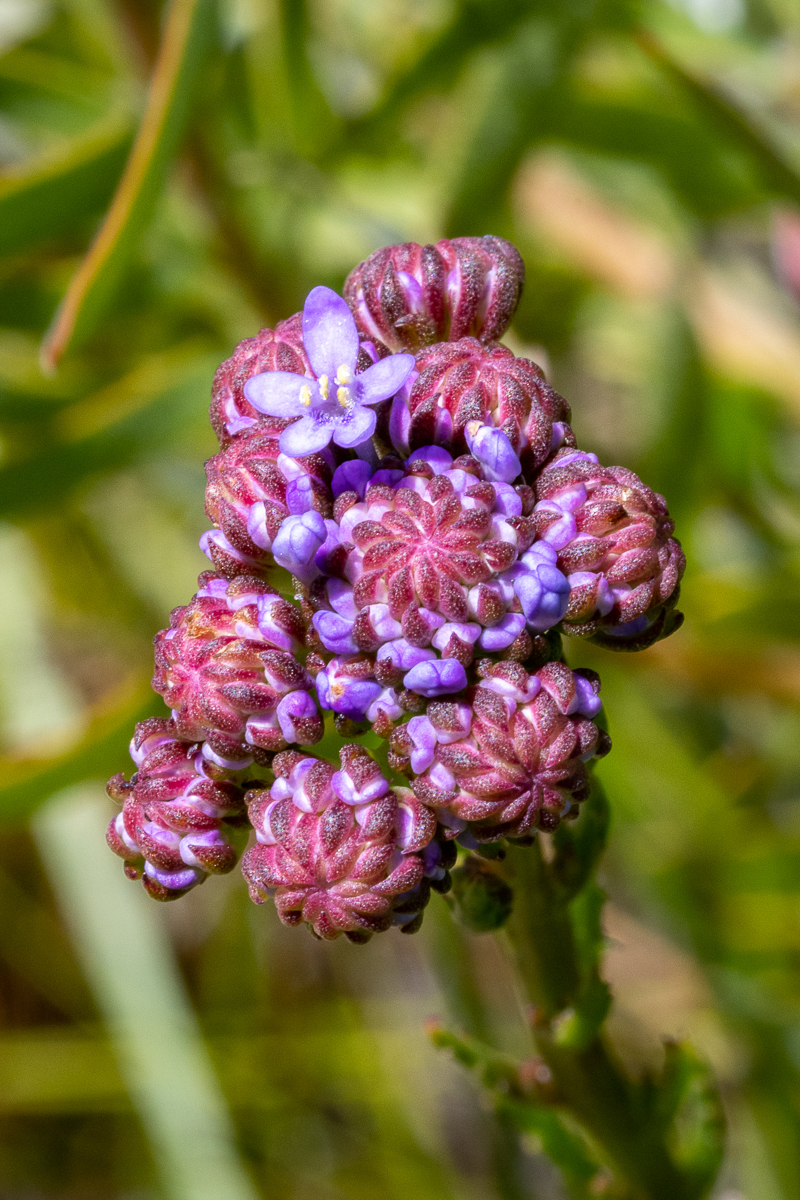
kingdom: Plantae
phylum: Tracheophyta
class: Magnoliopsida
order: Lamiales
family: Scrophulariaceae
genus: Pseudoselago
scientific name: Pseudoselago spuria
